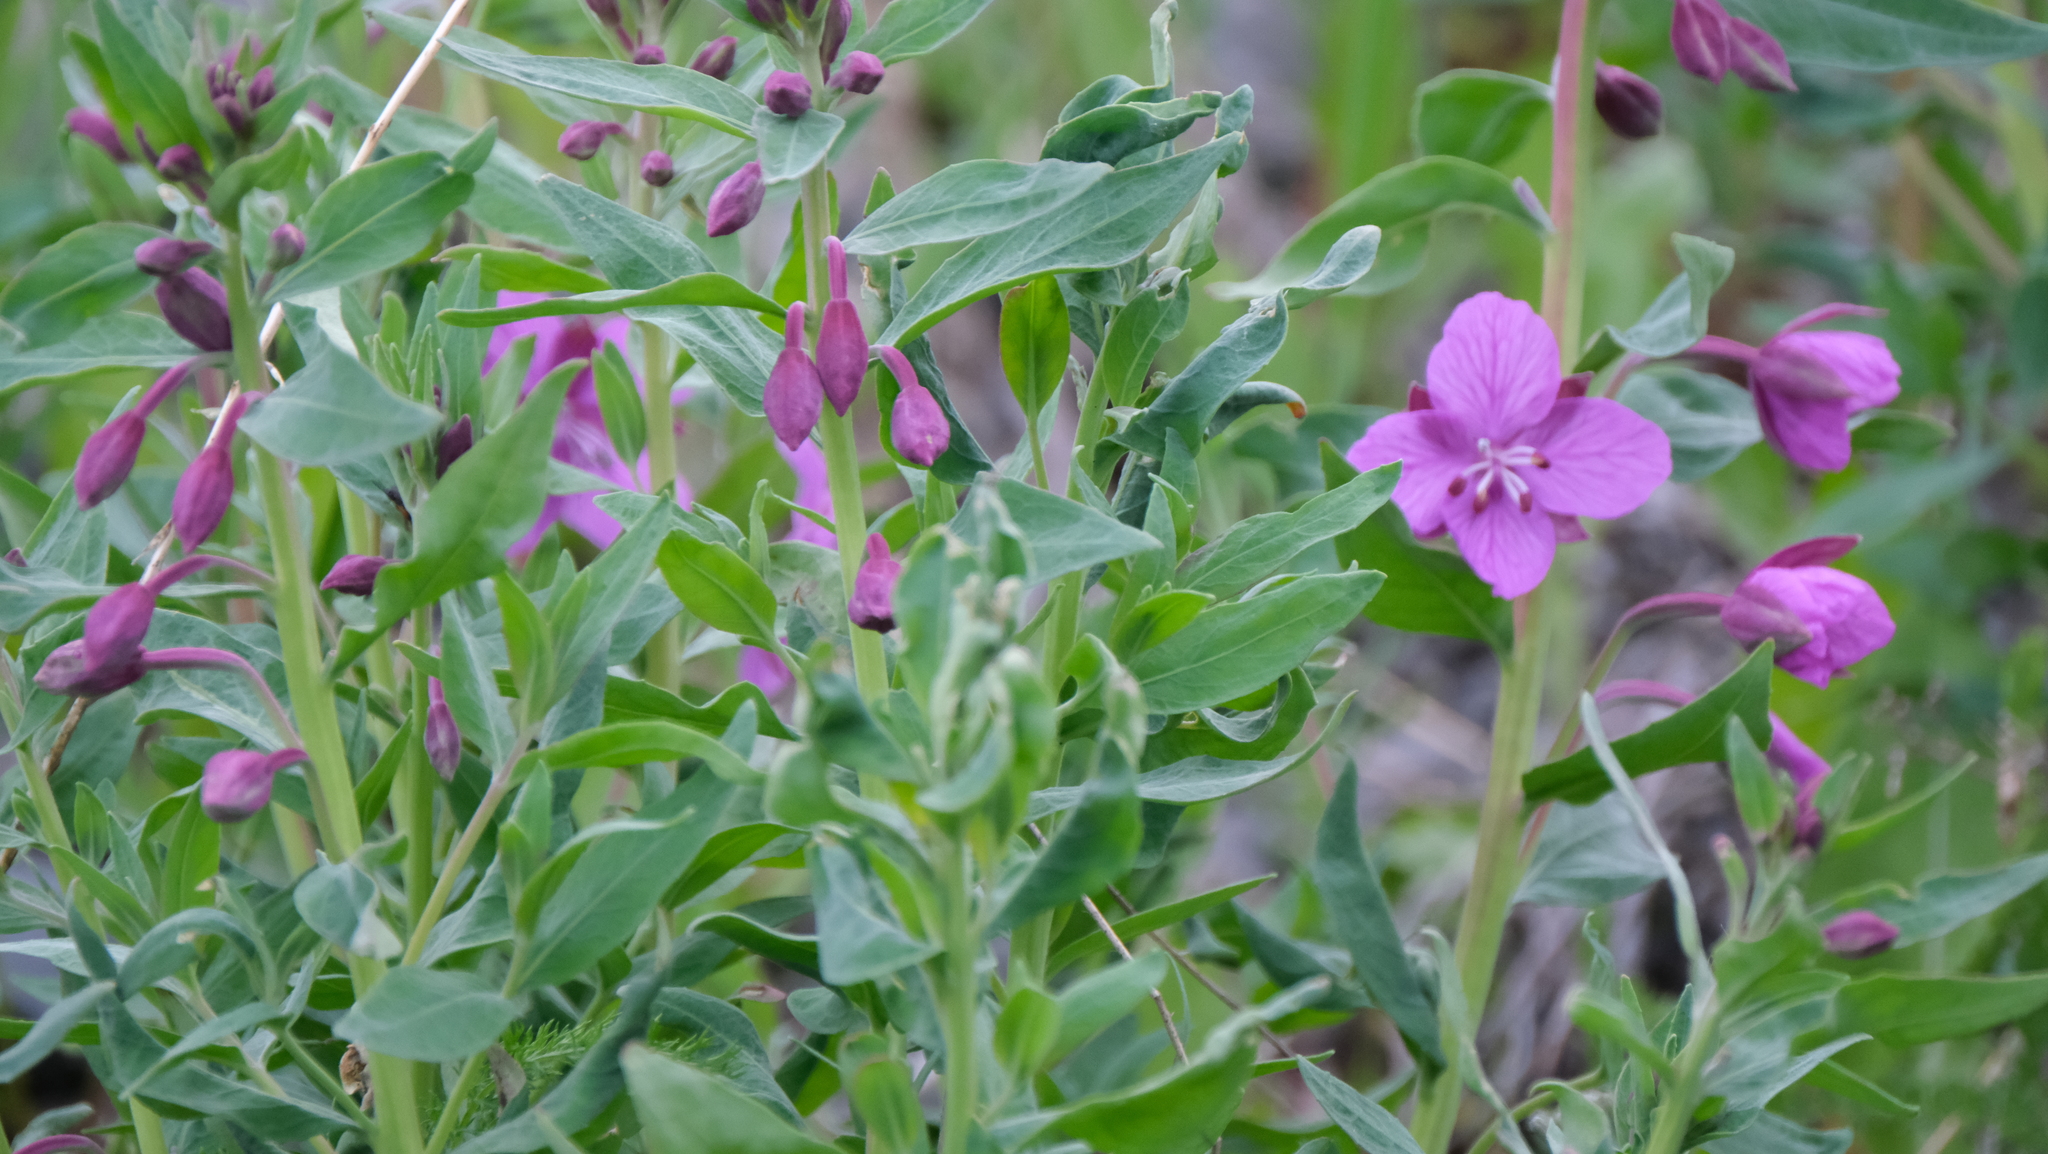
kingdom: Plantae
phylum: Tracheophyta
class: Magnoliopsida
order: Myrtales
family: Onagraceae
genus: Chamaenerion
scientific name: Chamaenerion latifolium
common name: Dwarf fireweed
